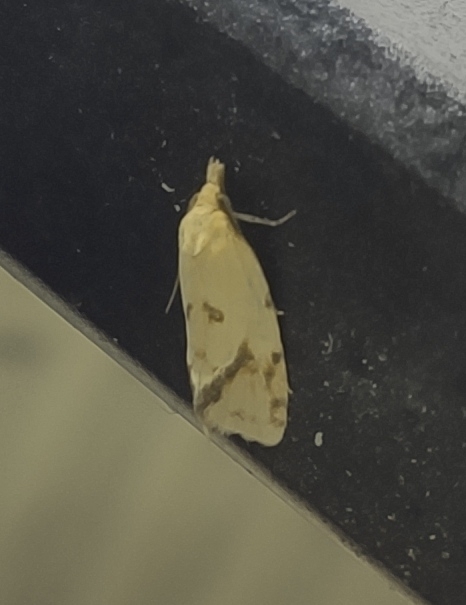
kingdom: Animalia
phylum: Arthropoda
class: Insecta
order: Lepidoptera
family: Tortricidae
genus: Agapeta
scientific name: Agapeta hamana
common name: Common yellow conch
